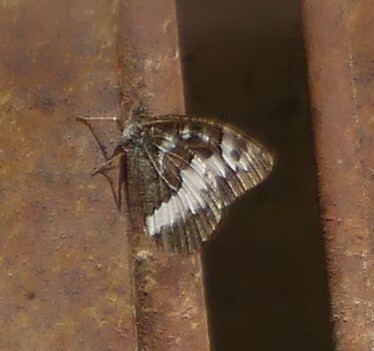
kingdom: Animalia
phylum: Arthropoda
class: Insecta
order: Lepidoptera
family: Lycaenidae
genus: Loweia
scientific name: Loweia tityrus
